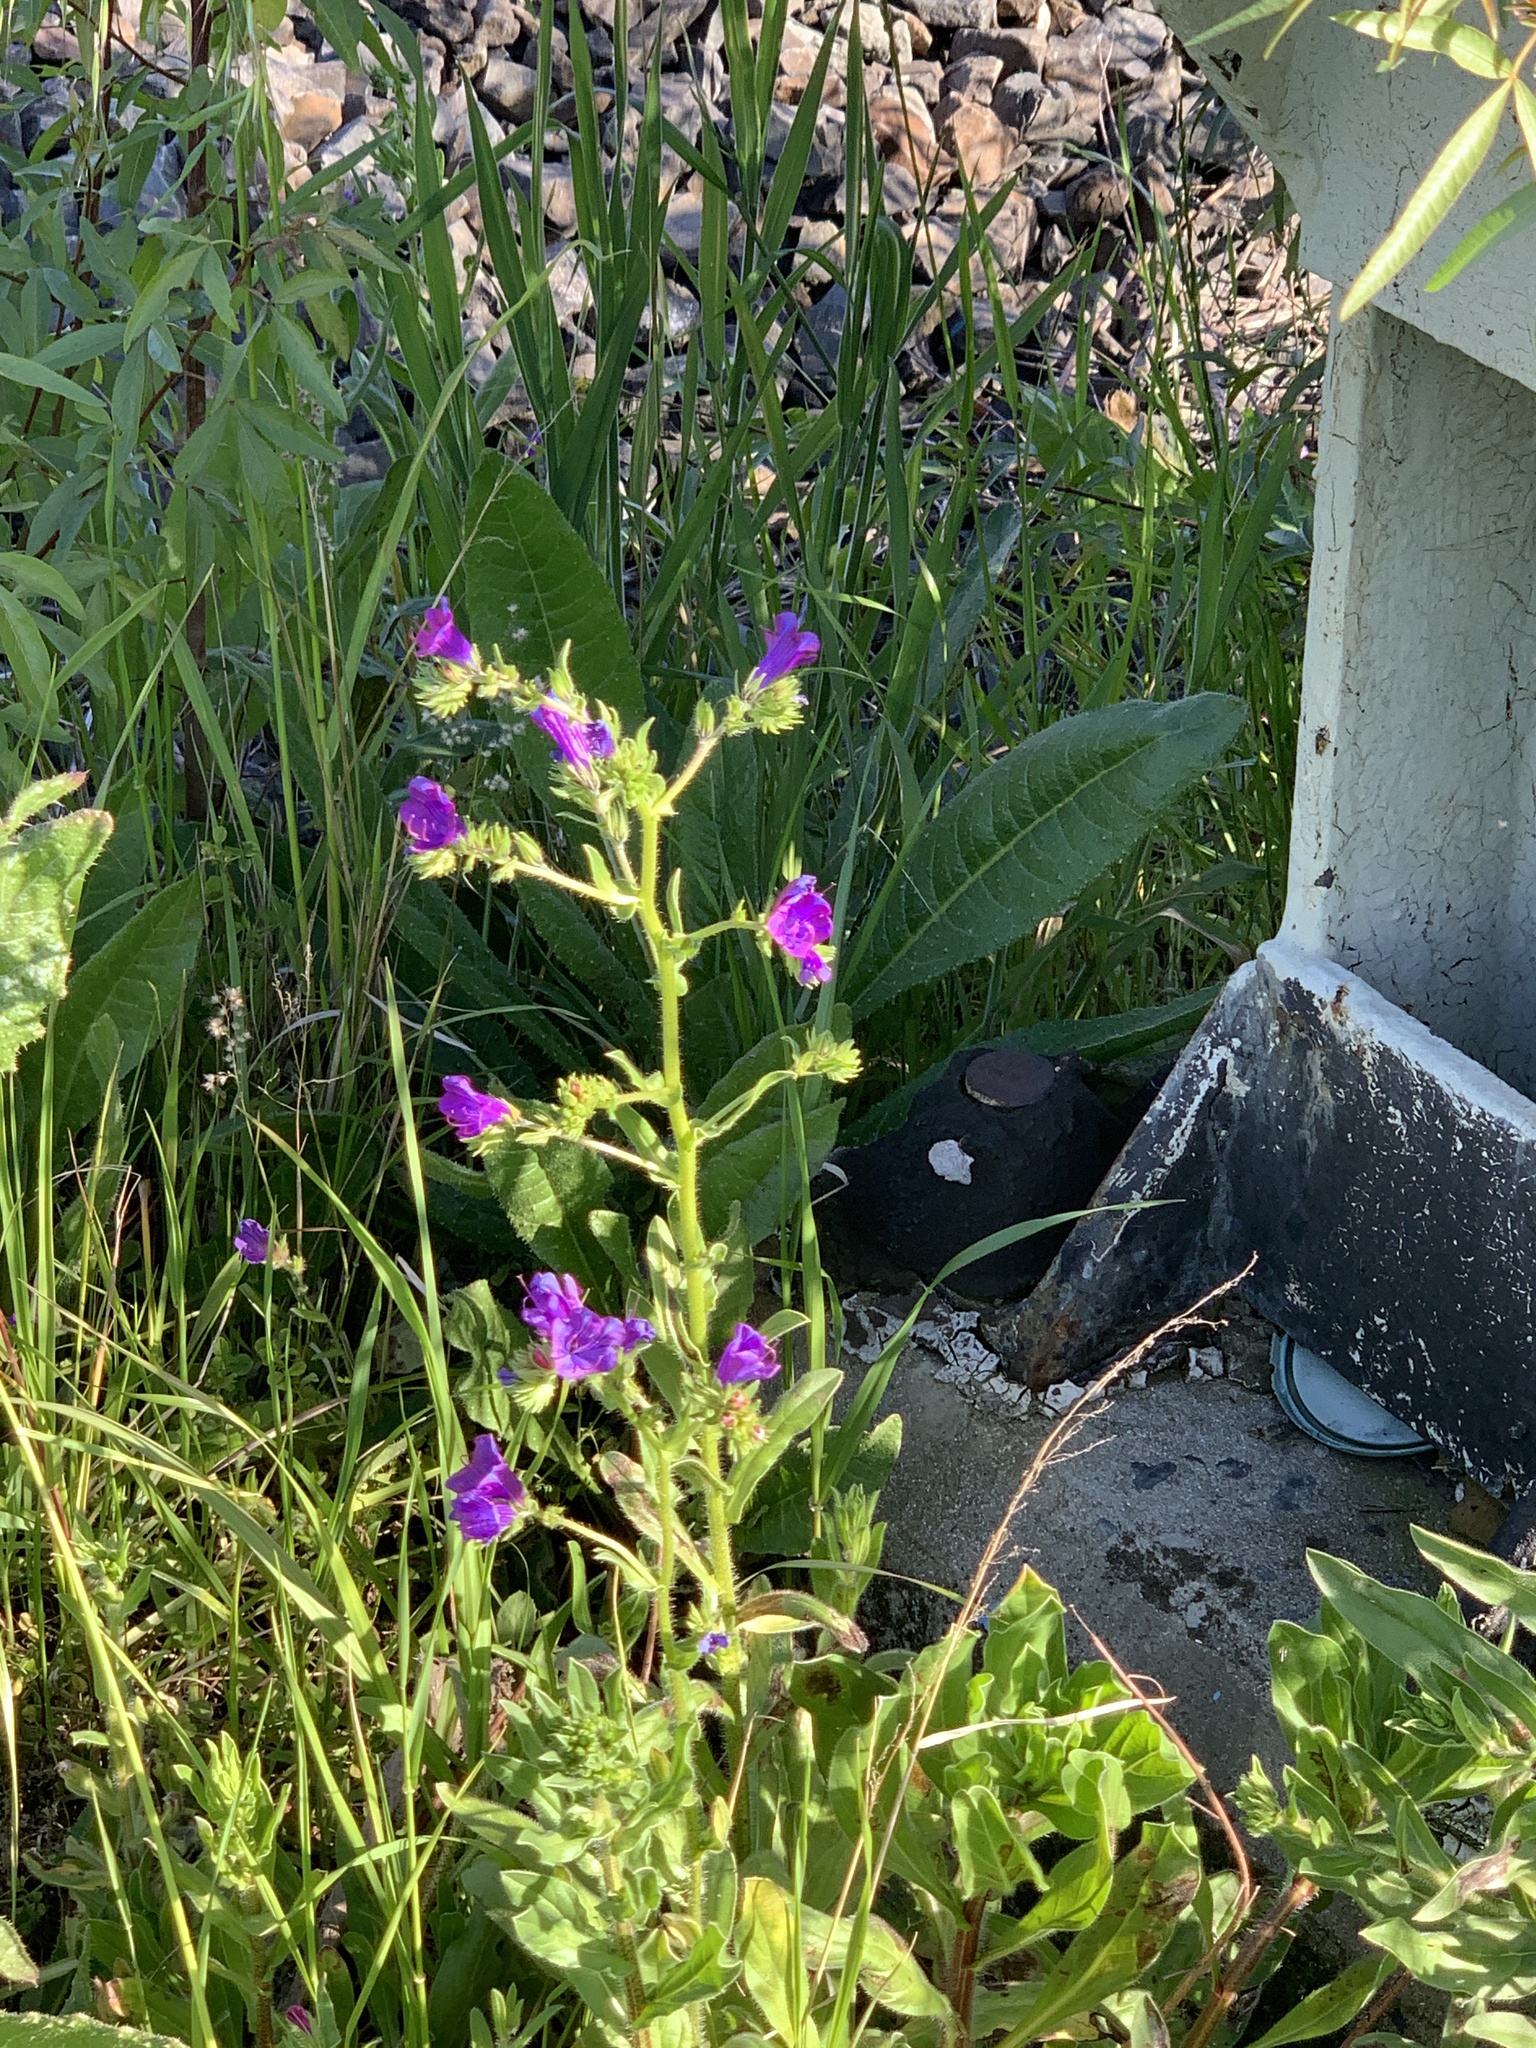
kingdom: Plantae
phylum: Tracheophyta
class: Magnoliopsida
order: Boraginales
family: Boraginaceae
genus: Echium
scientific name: Echium plantagineum
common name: Purple viper's-bugloss
